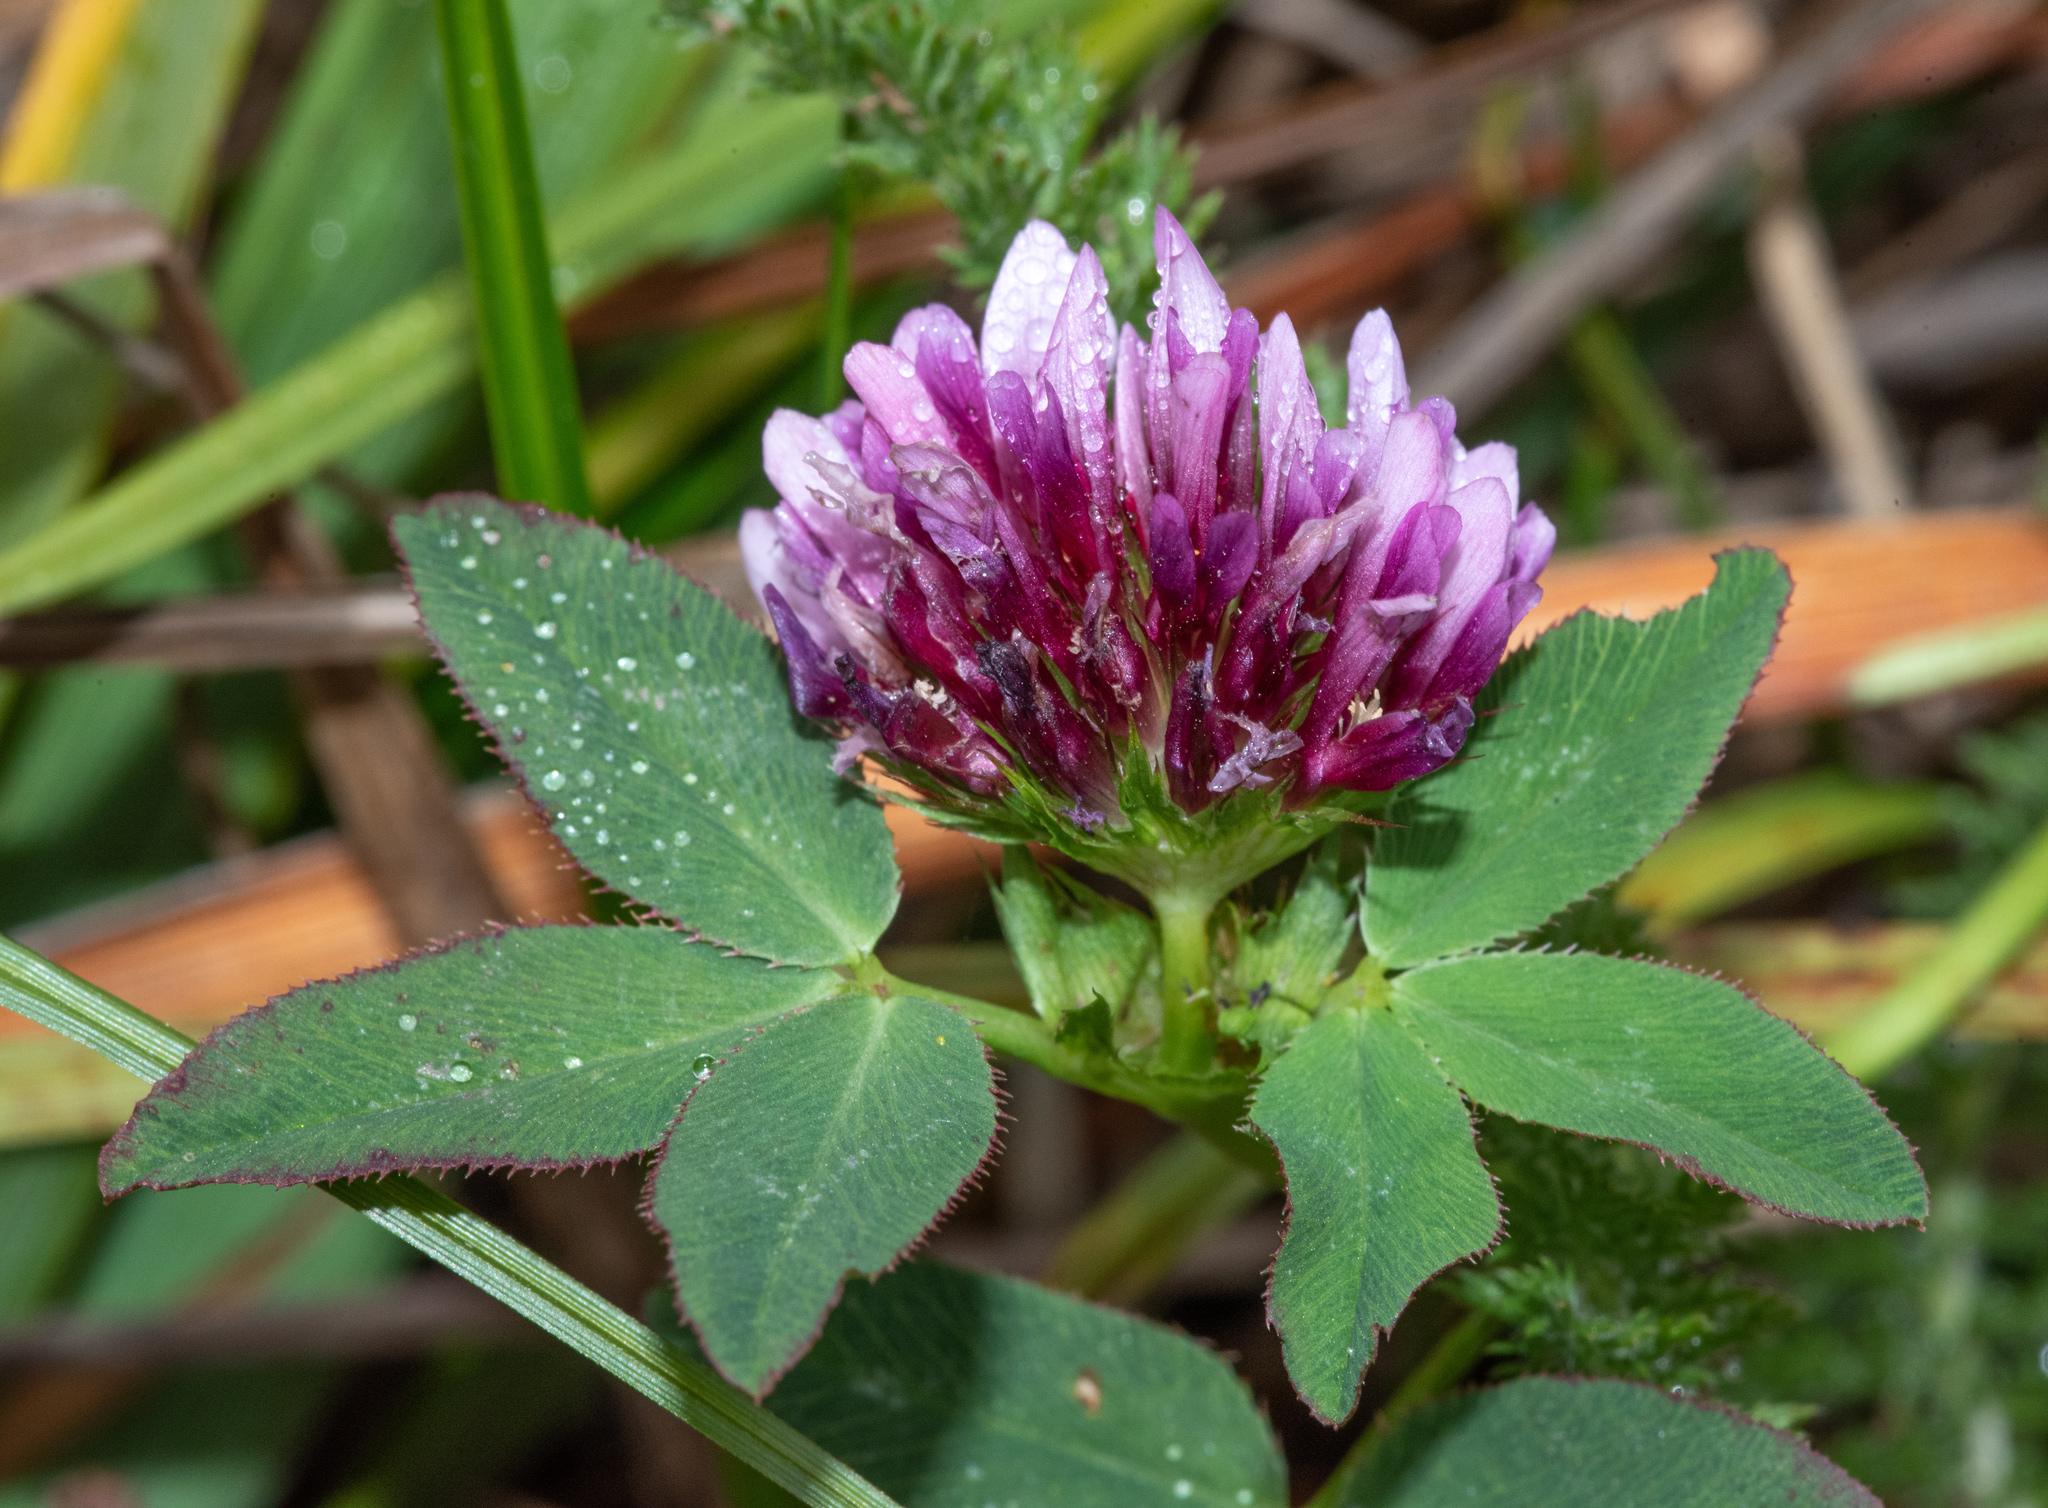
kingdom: Plantae
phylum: Tracheophyta
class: Magnoliopsida
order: Fabales
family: Fabaceae
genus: Trifolium
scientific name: Trifolium wormskioldii
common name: Springbank clover
